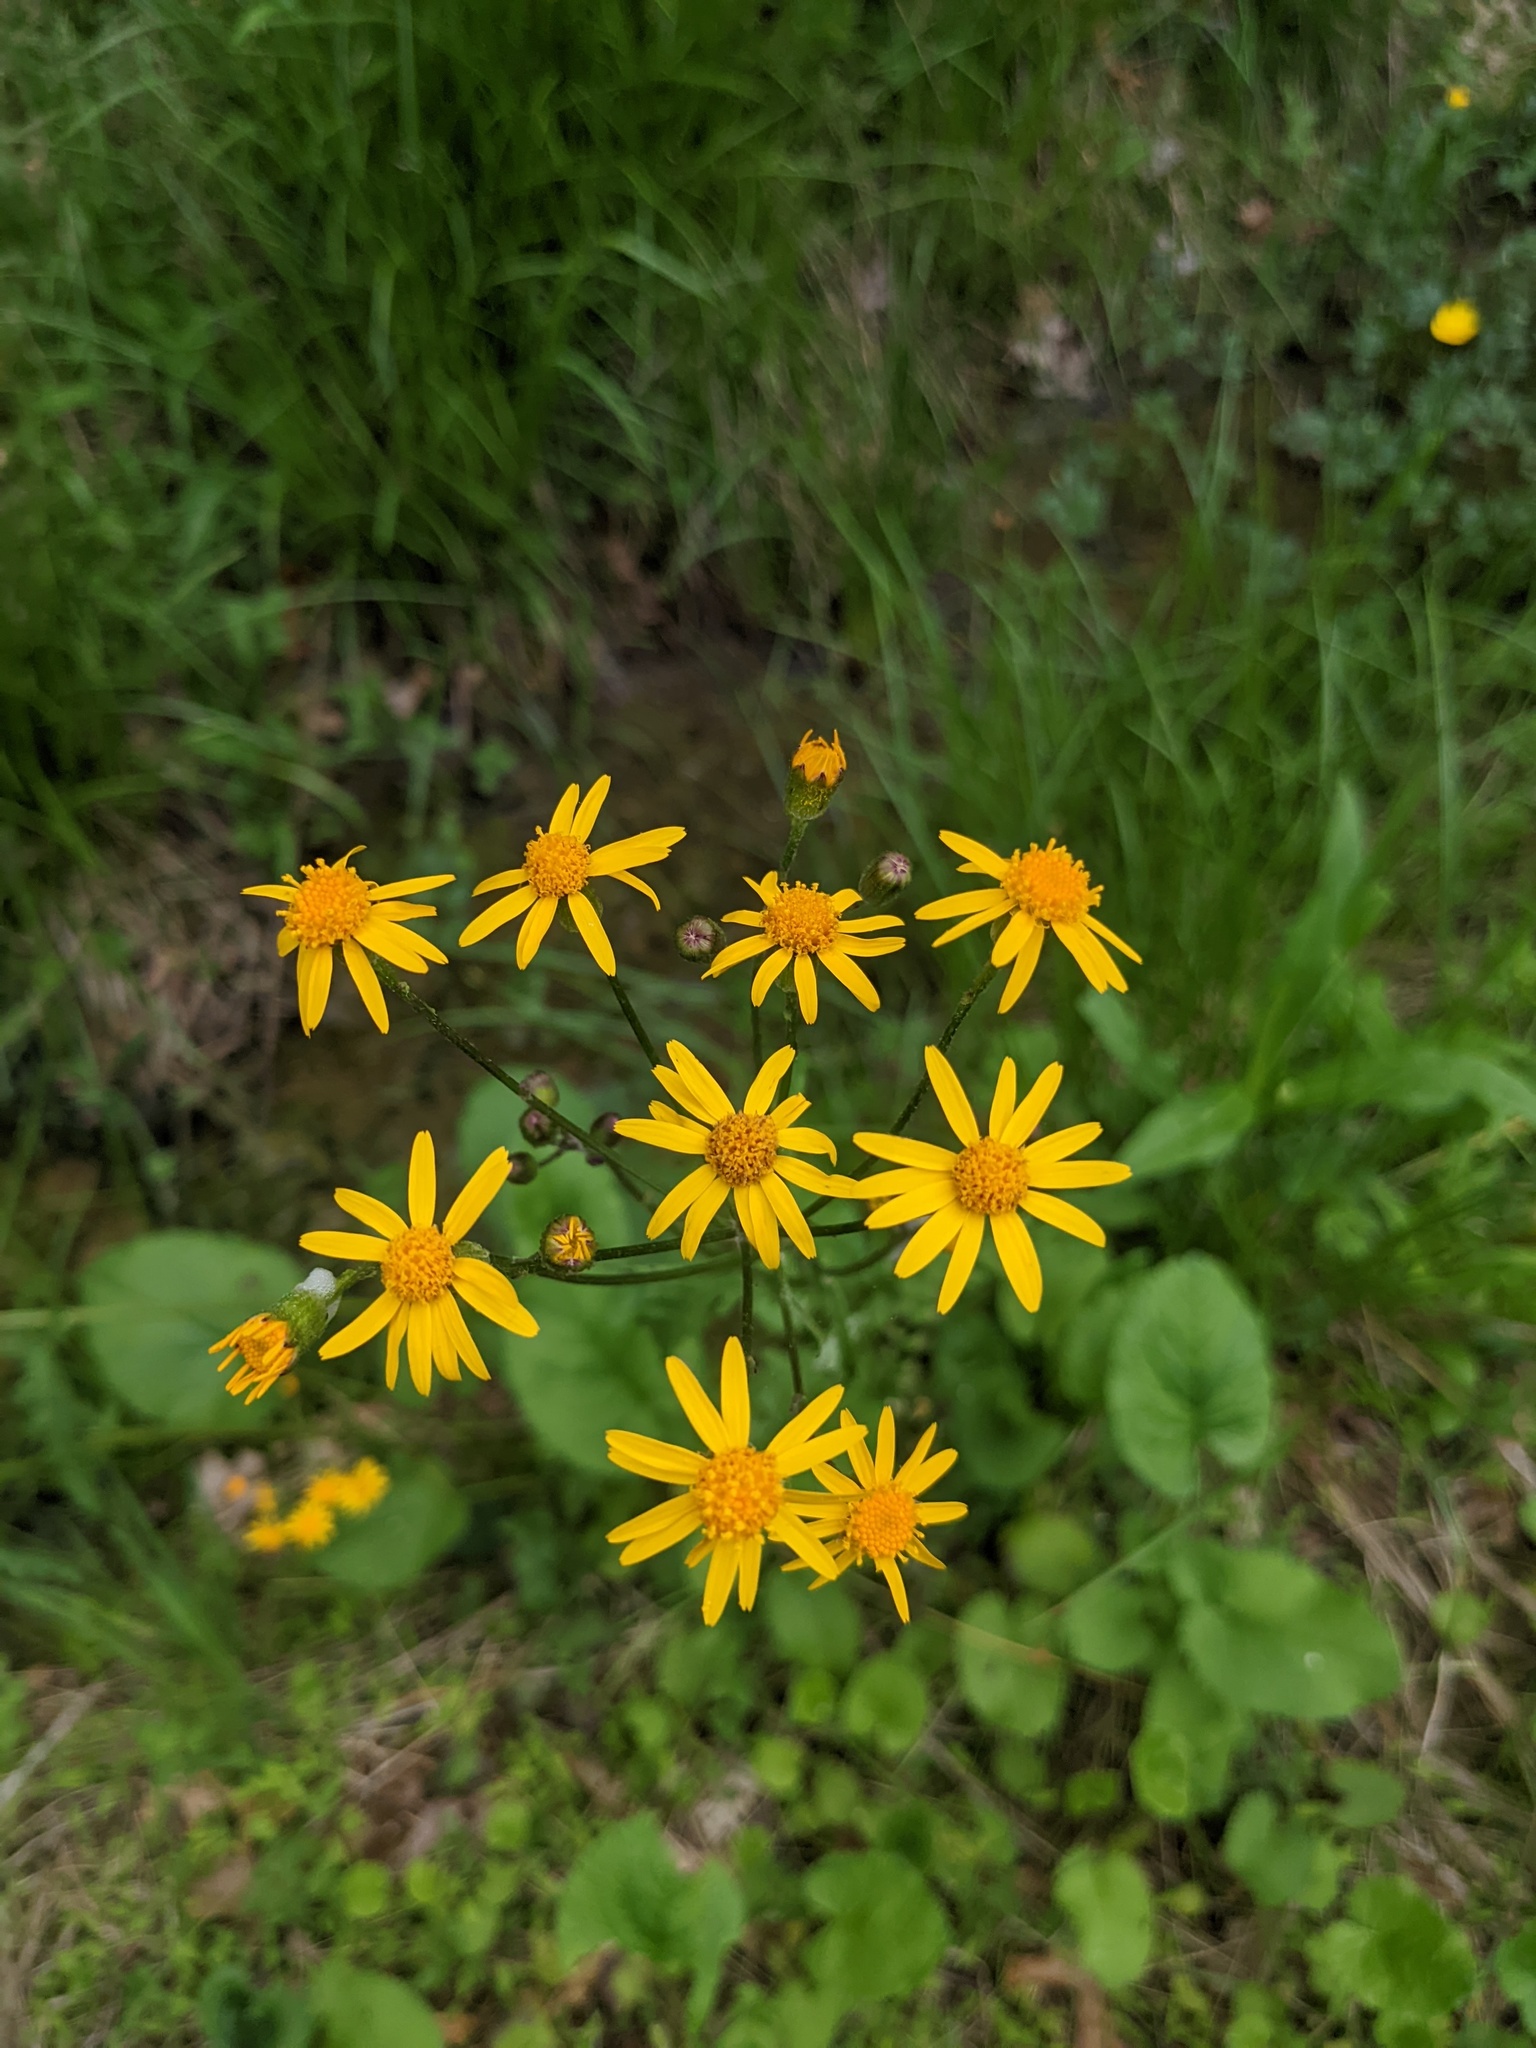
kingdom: Plantae
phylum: Tracheophyta
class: Magnoliopsida
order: Asterales
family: Asteraceae
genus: Packera
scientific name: Packera aurea
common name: Golden groundsel
